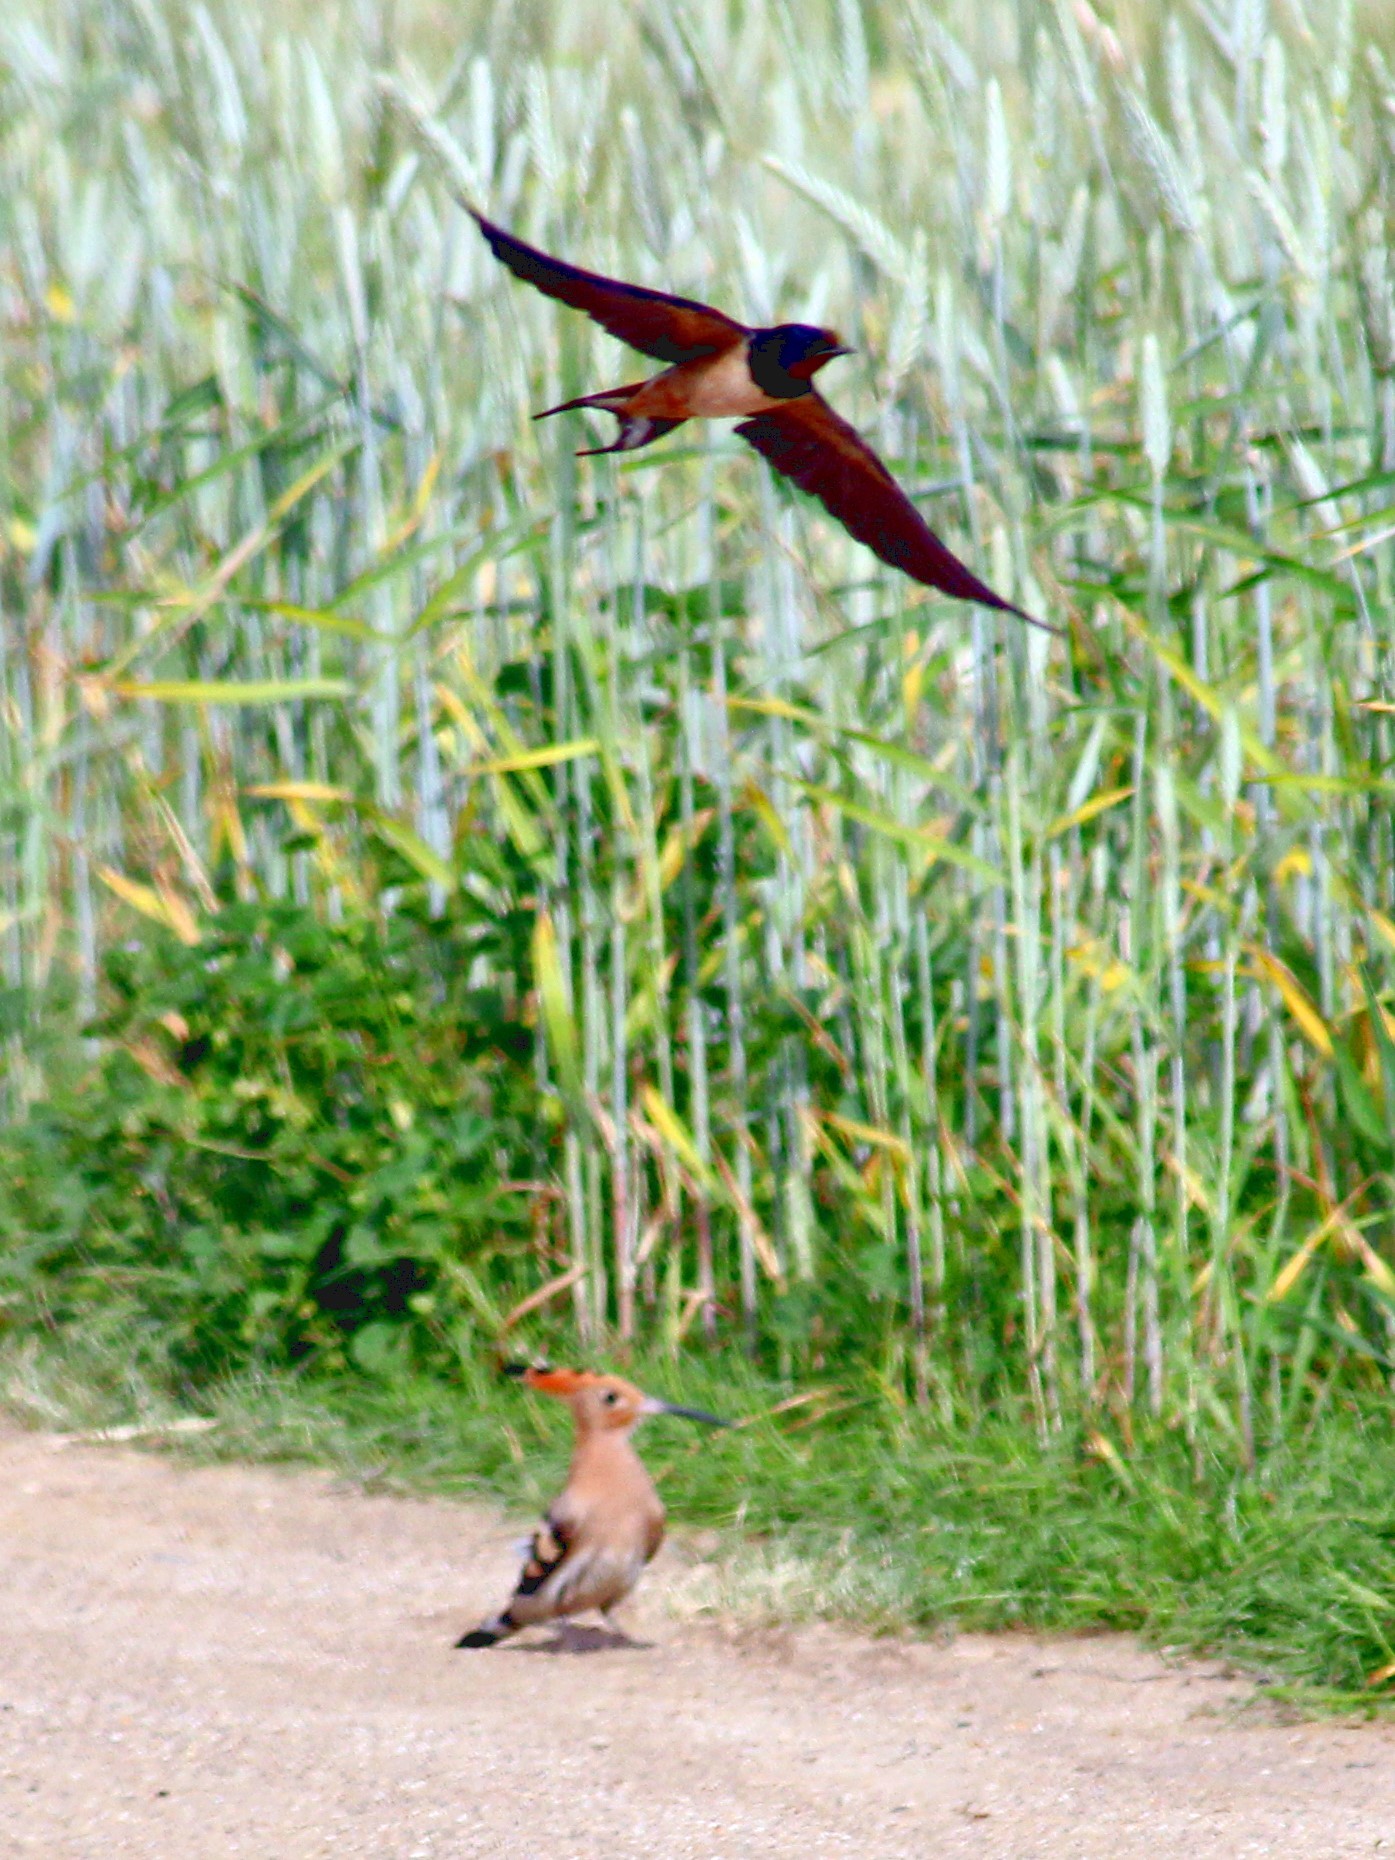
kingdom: Animalia
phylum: Chordata
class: Aves
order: Passeriformes
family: Hirundinidae
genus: Hirundo
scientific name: Hirundo rustica
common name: Barn swallow
